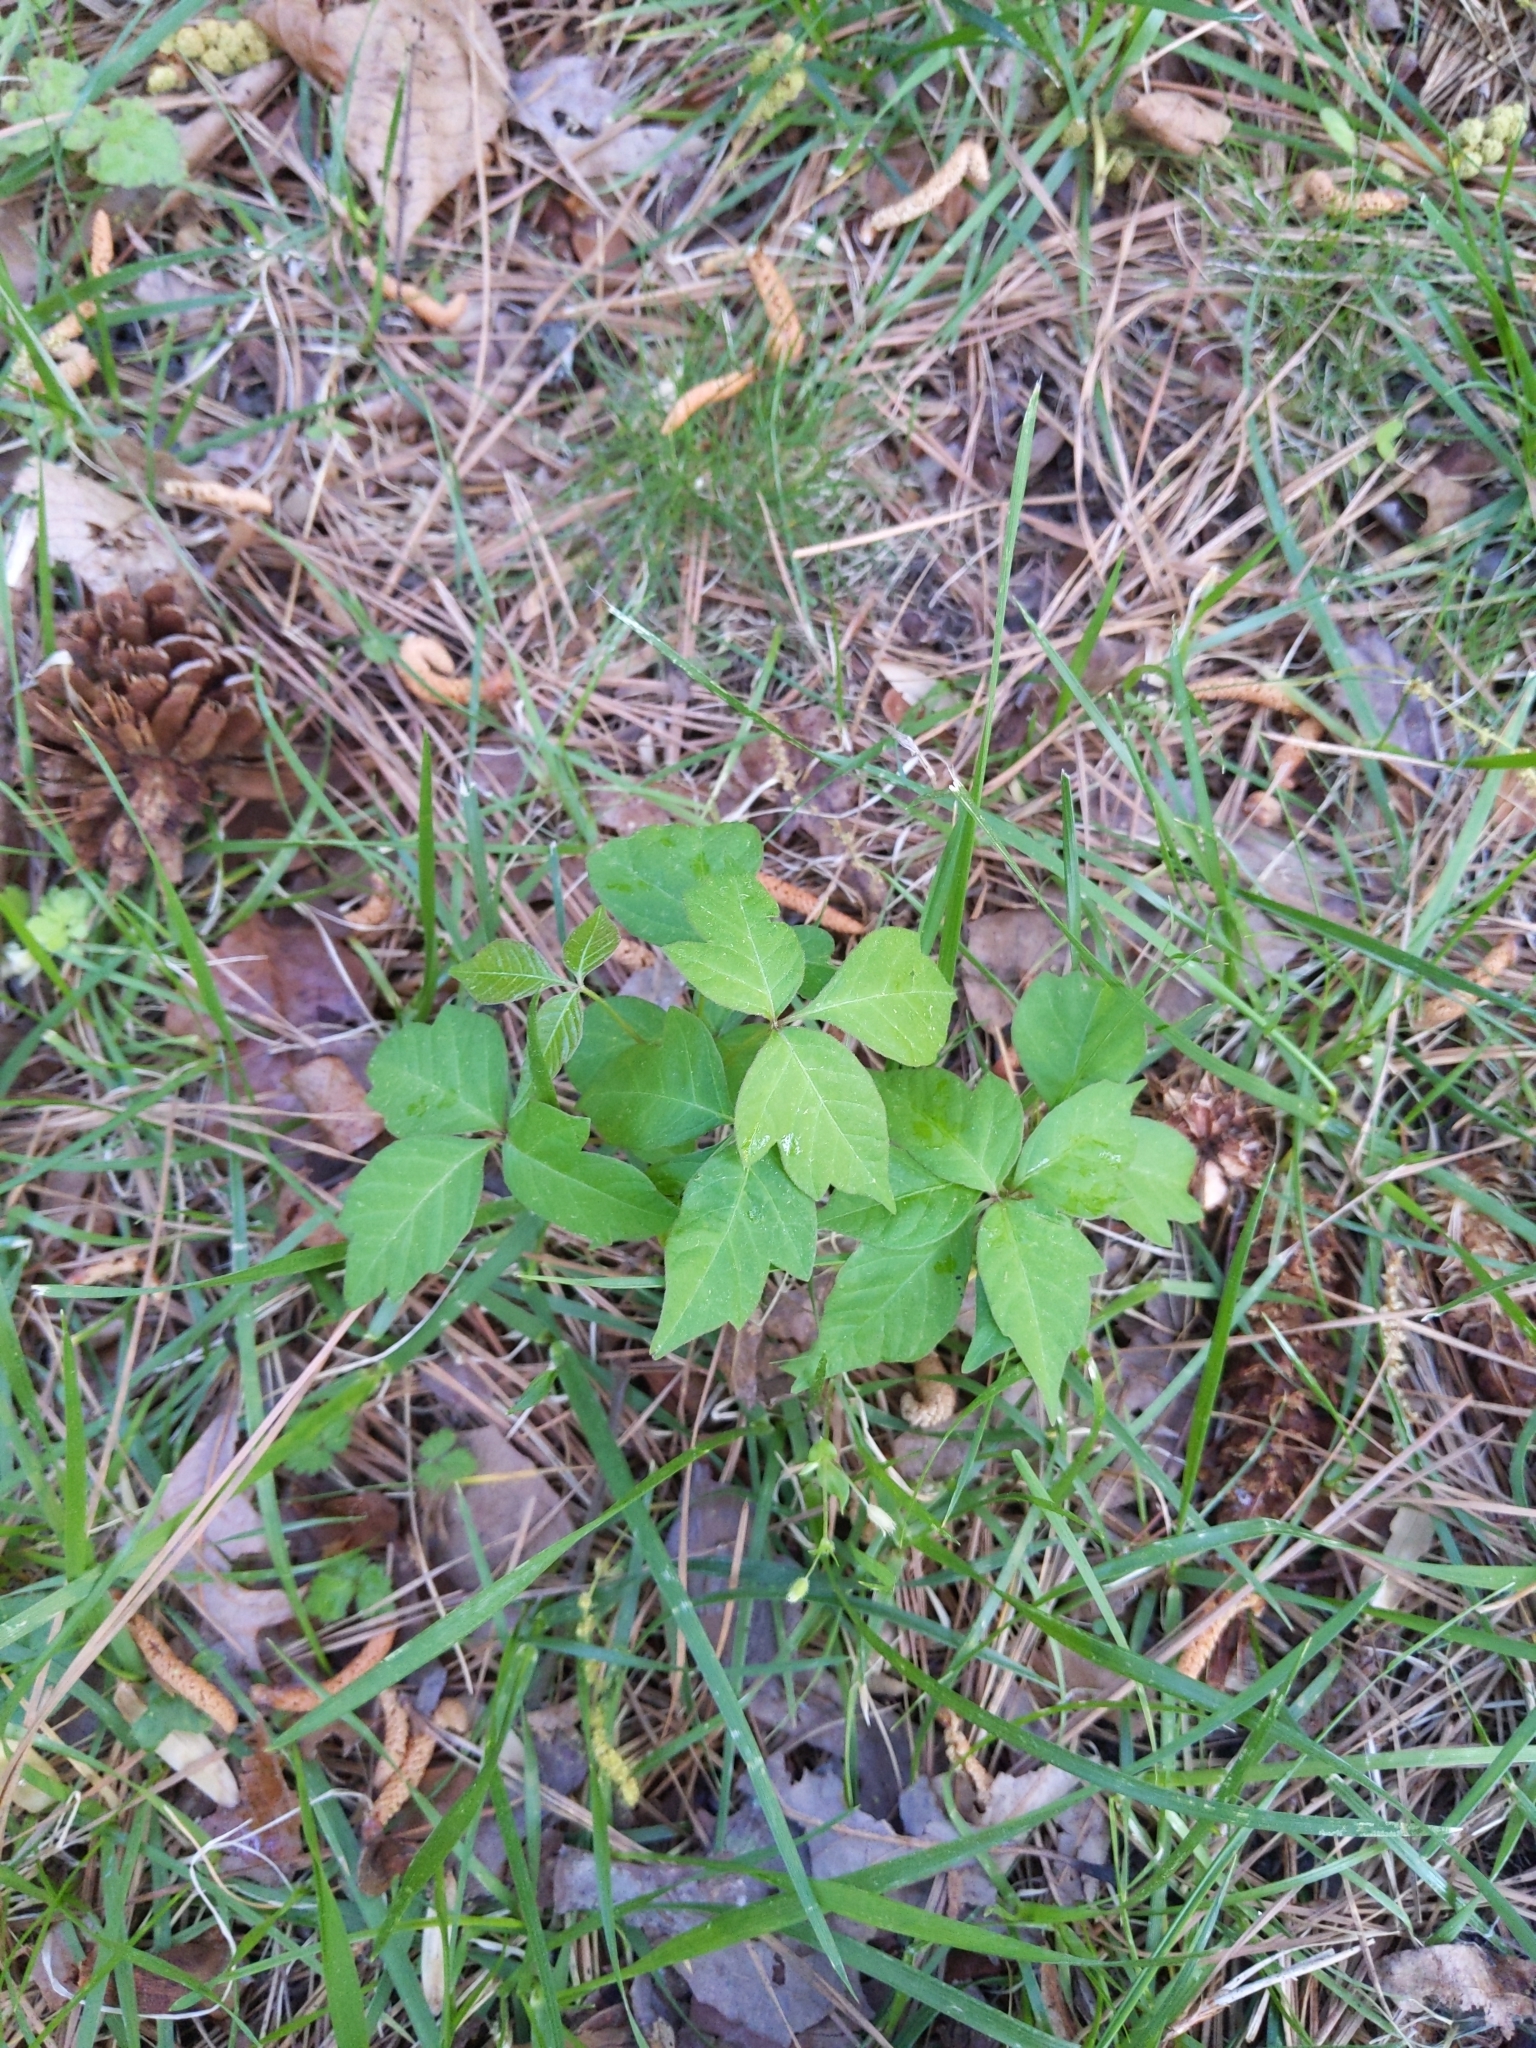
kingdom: Plantae
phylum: Tracheophyta
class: Magnoliopsida
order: Sapindales
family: Anacardiaceae
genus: Toxicodendron
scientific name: Toxicodendron radicans
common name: Poison ivy
